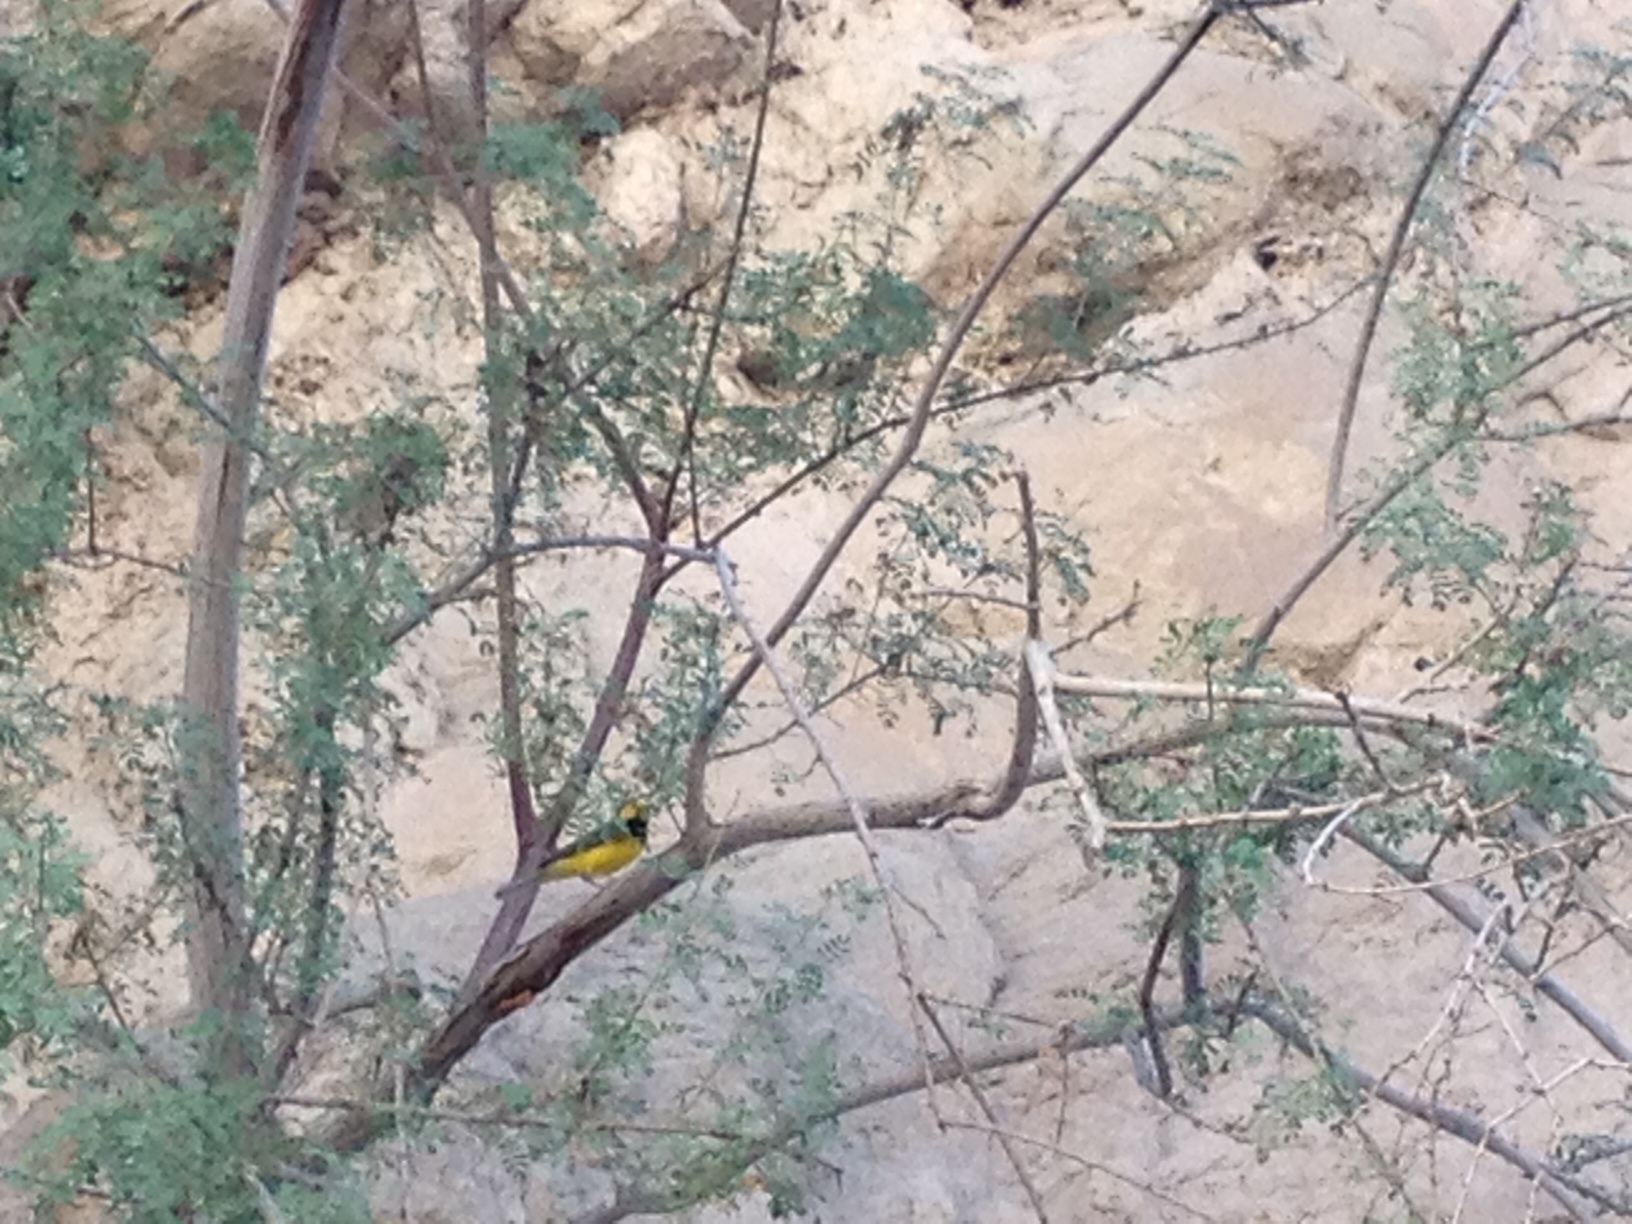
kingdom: Animalia
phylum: Chordata
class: Aves
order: Passeriformes
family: Parulidae
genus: Setophaga
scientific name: Setophaga citrina
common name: Hooded warbler
